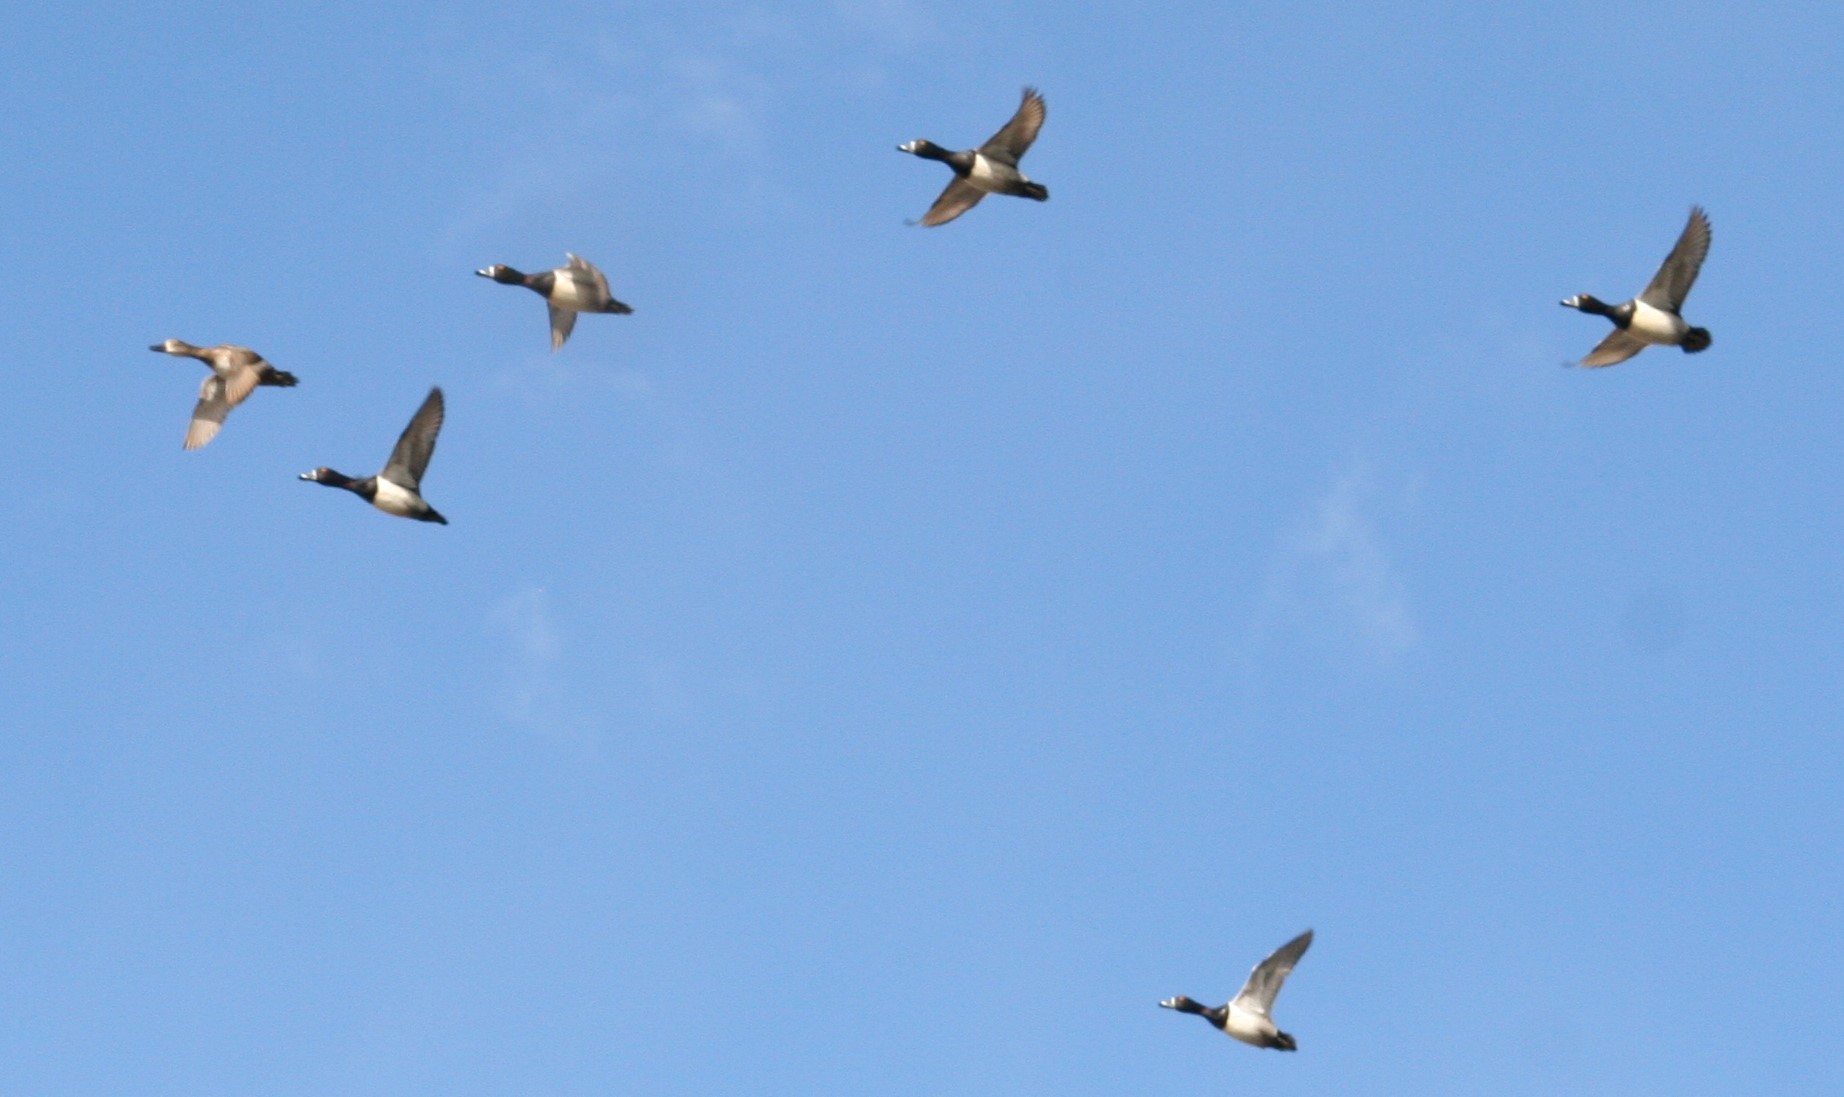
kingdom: Animalia
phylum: Chordata
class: Aves
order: Anseriformes
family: Anatidae
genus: Aythya
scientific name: Aythya collaris
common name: Ring-necked duck
